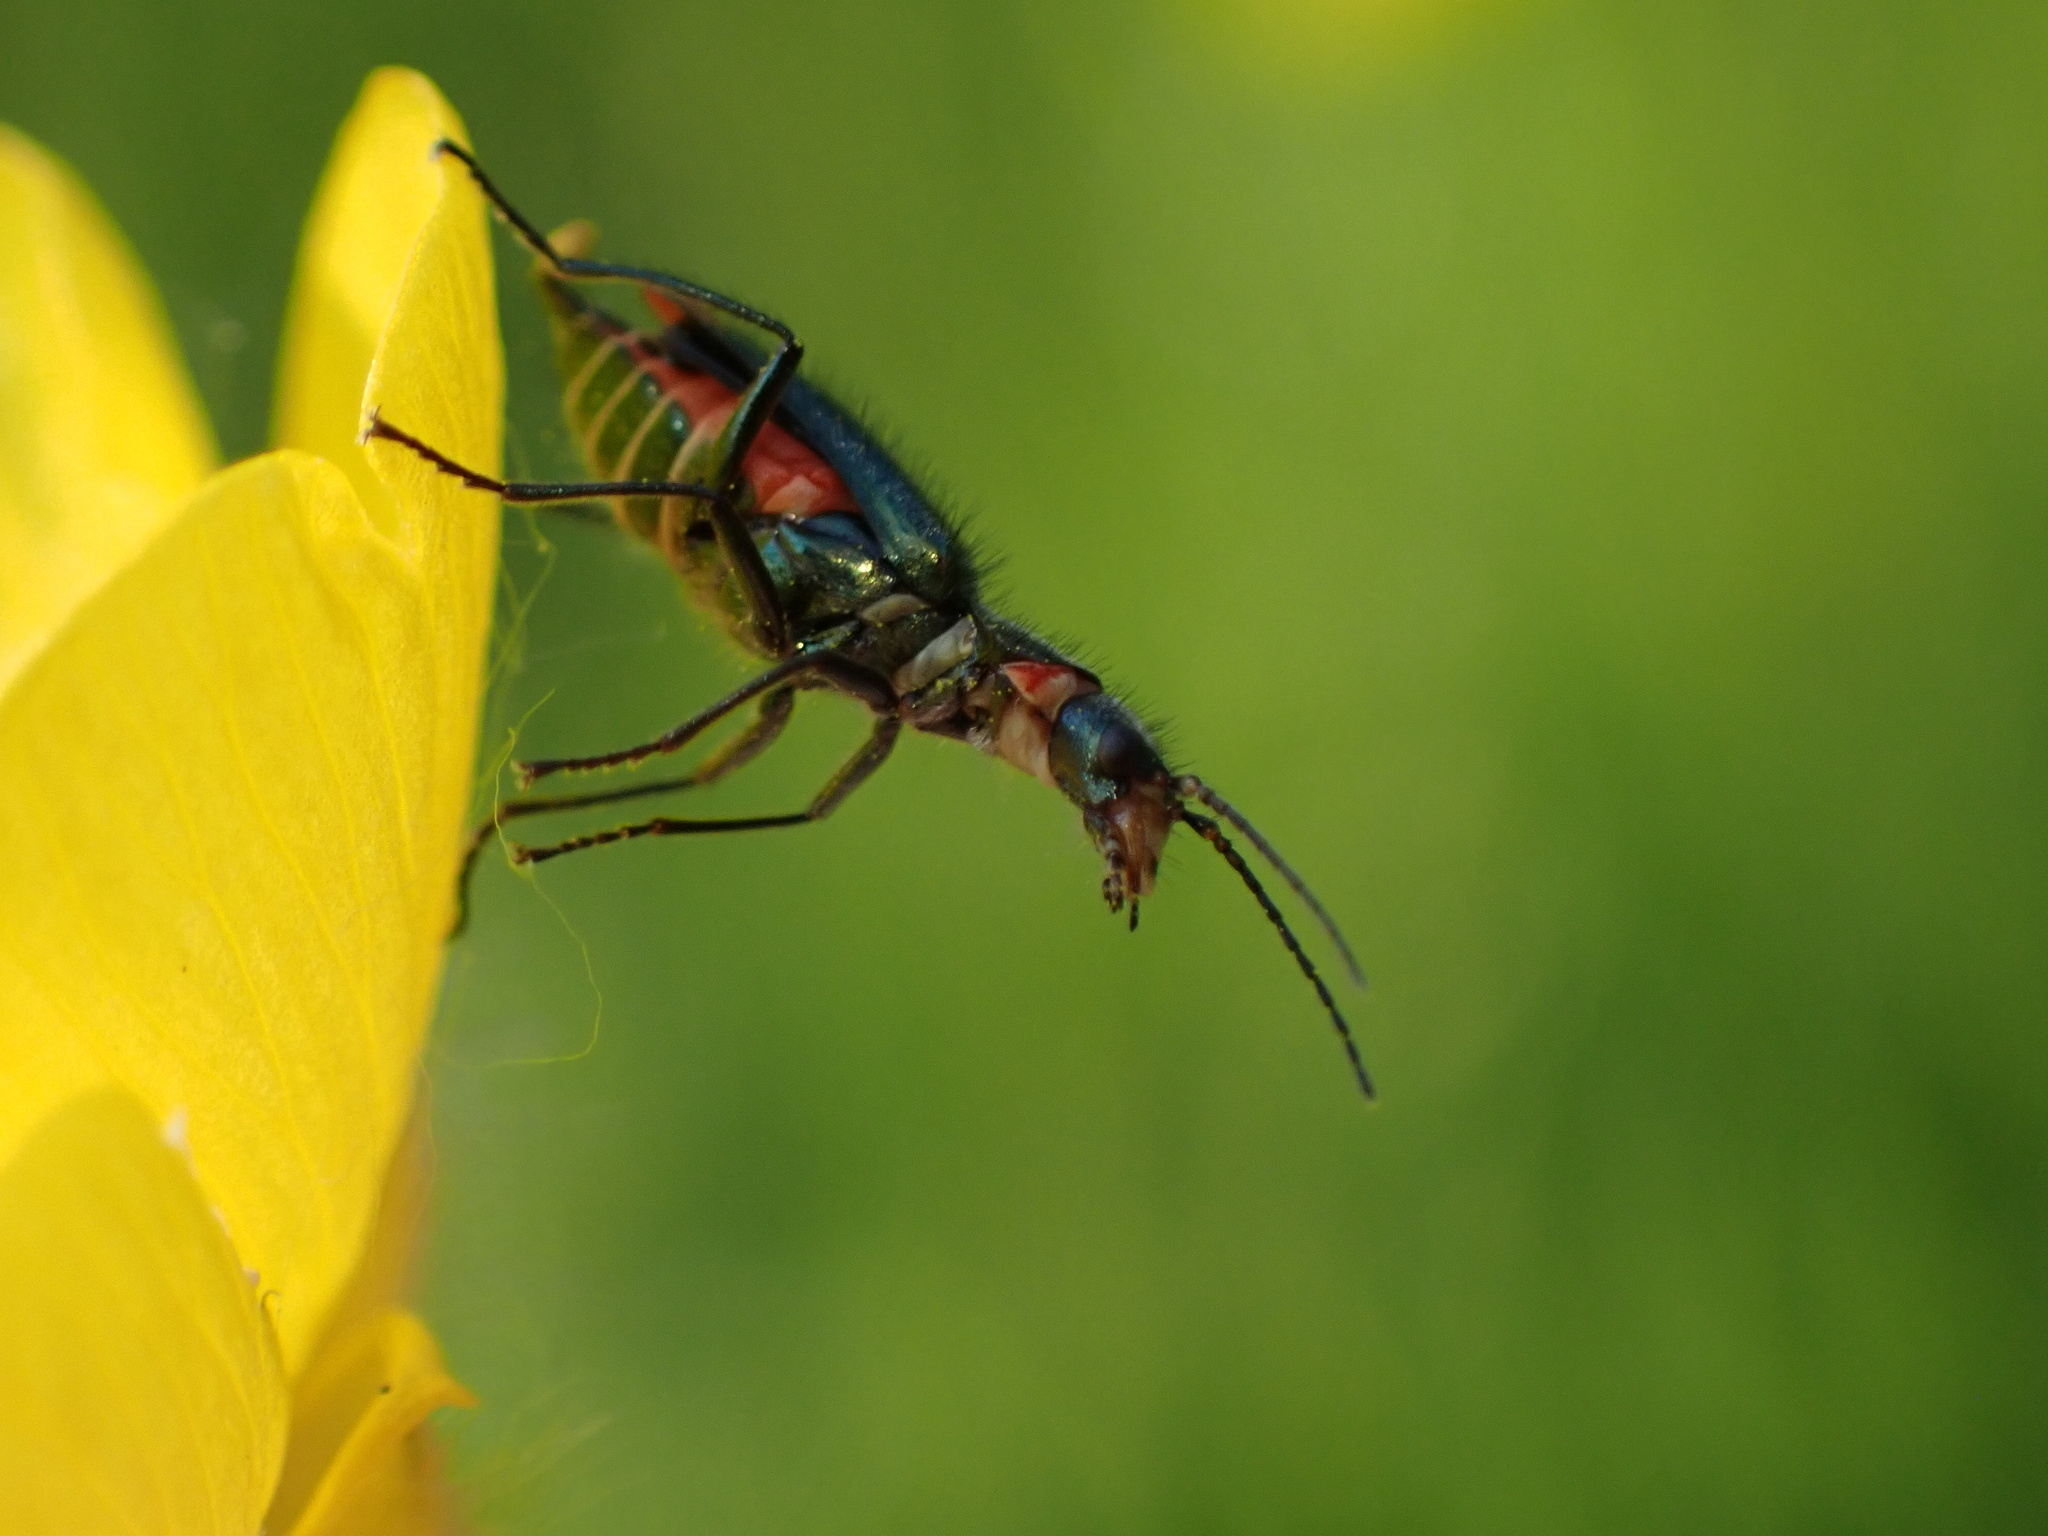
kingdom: Animalia
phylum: Arthropoda
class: Insecta
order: Coleoptera
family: Melyridae
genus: Malachius
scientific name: Malachius bipustulatus
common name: Malachite beetle
